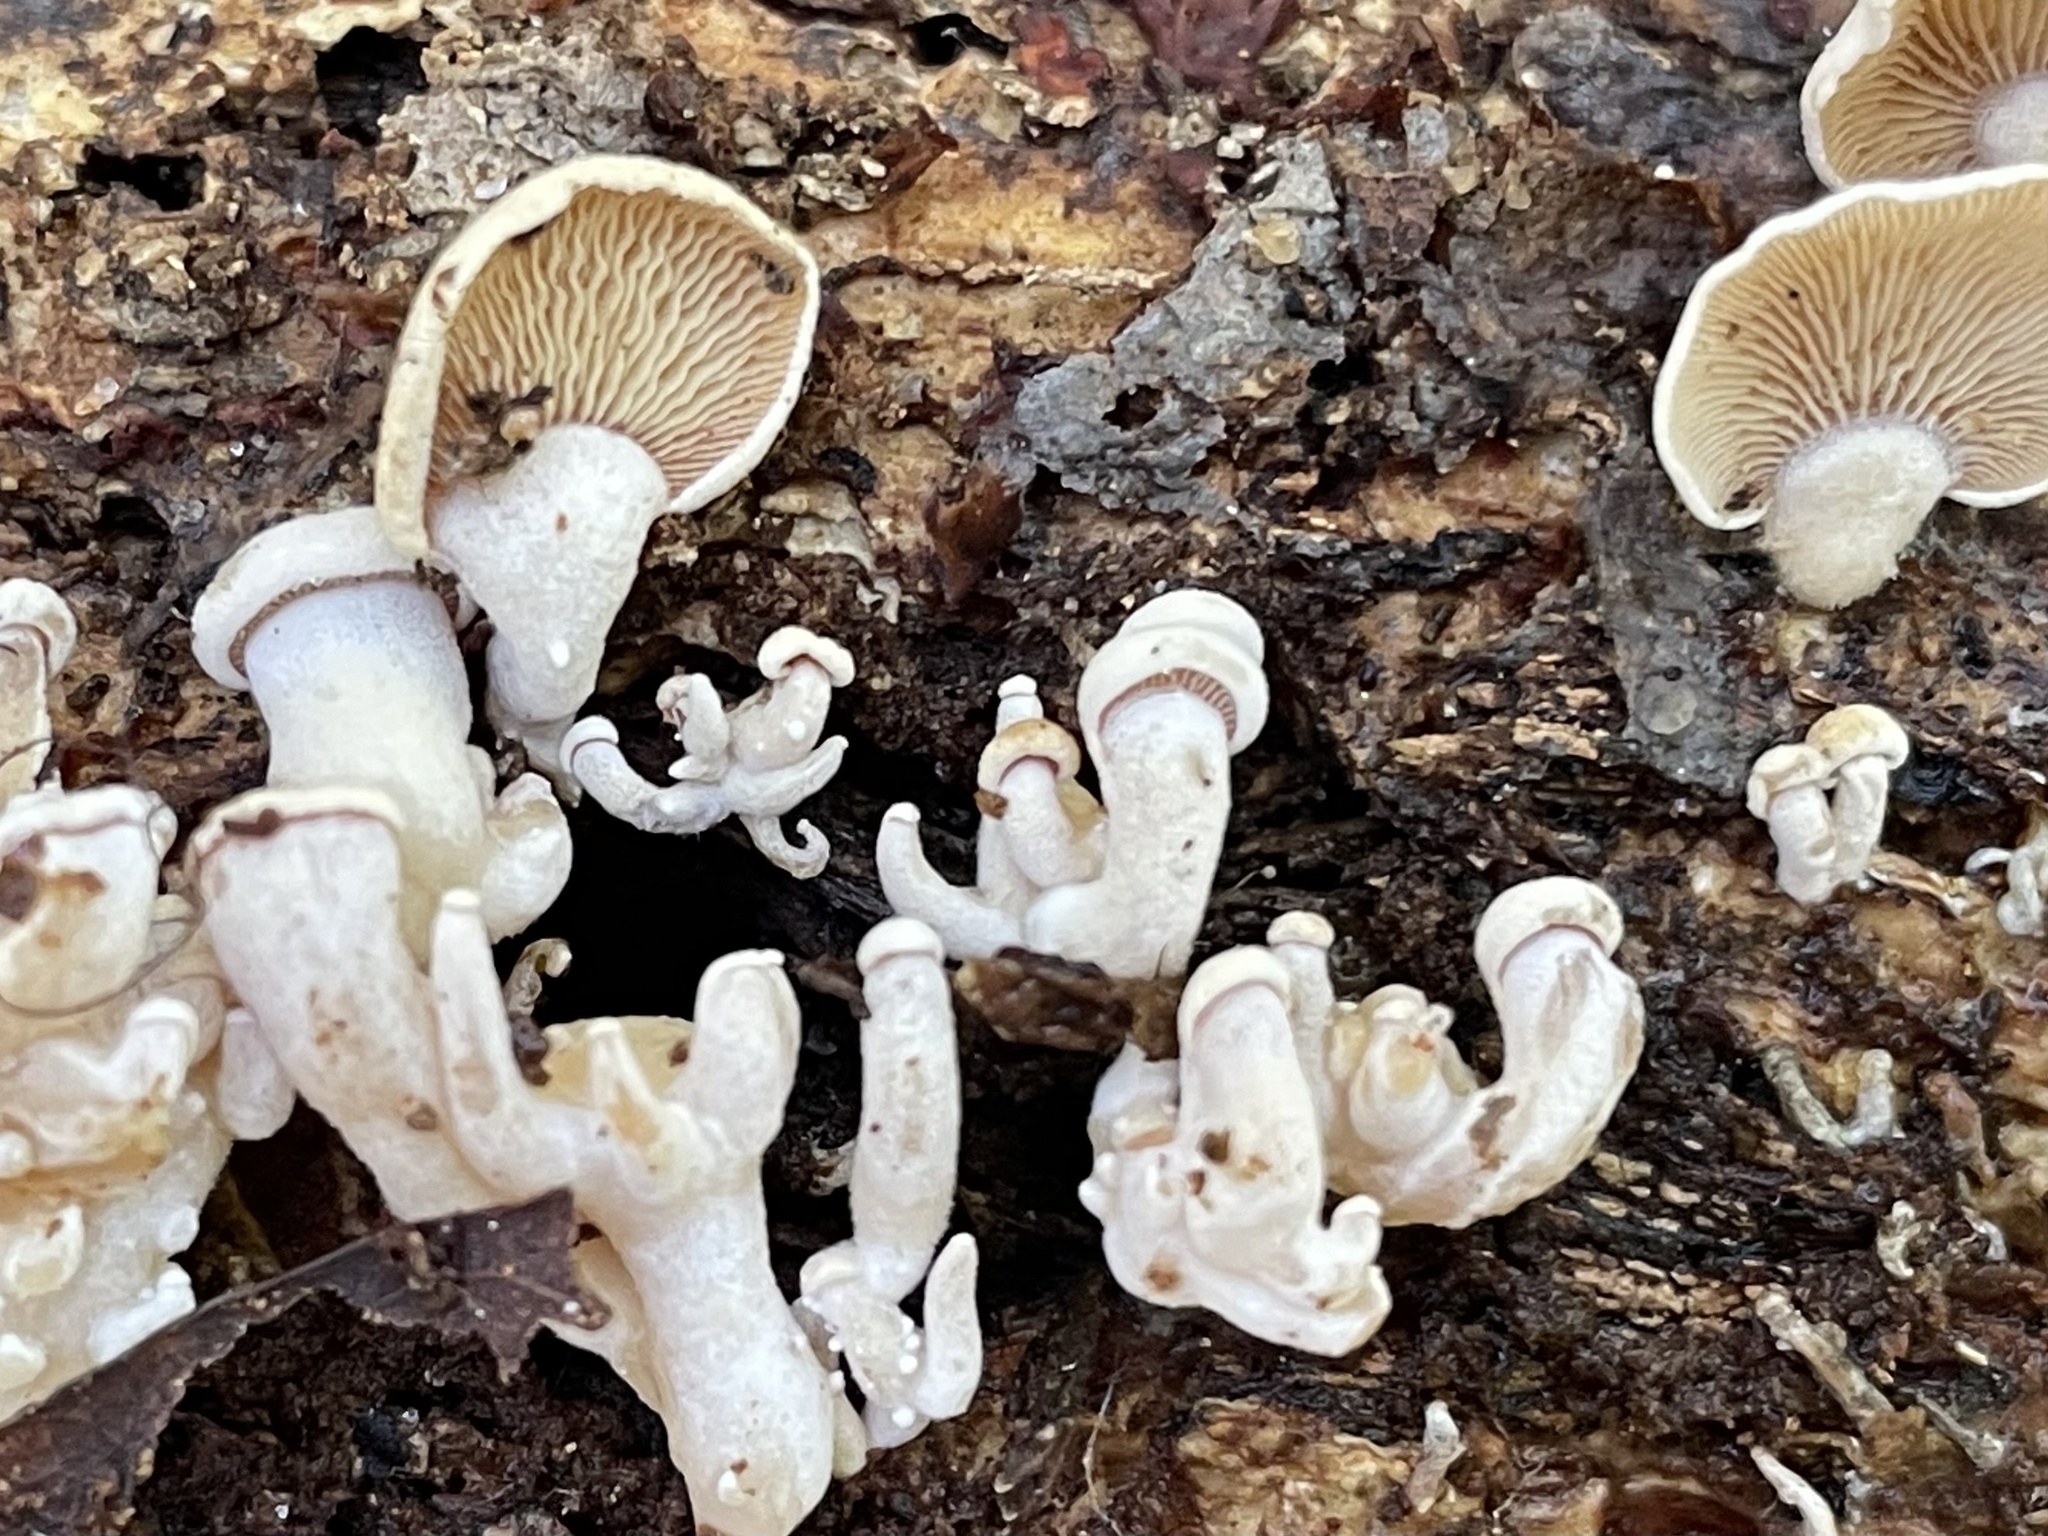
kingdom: Fungi
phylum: Basidiomycota
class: Agaricomycetes
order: Agaricales
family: Mycenaceae
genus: Panellus
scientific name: Panellus stipticus
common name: Bitter oysterling
